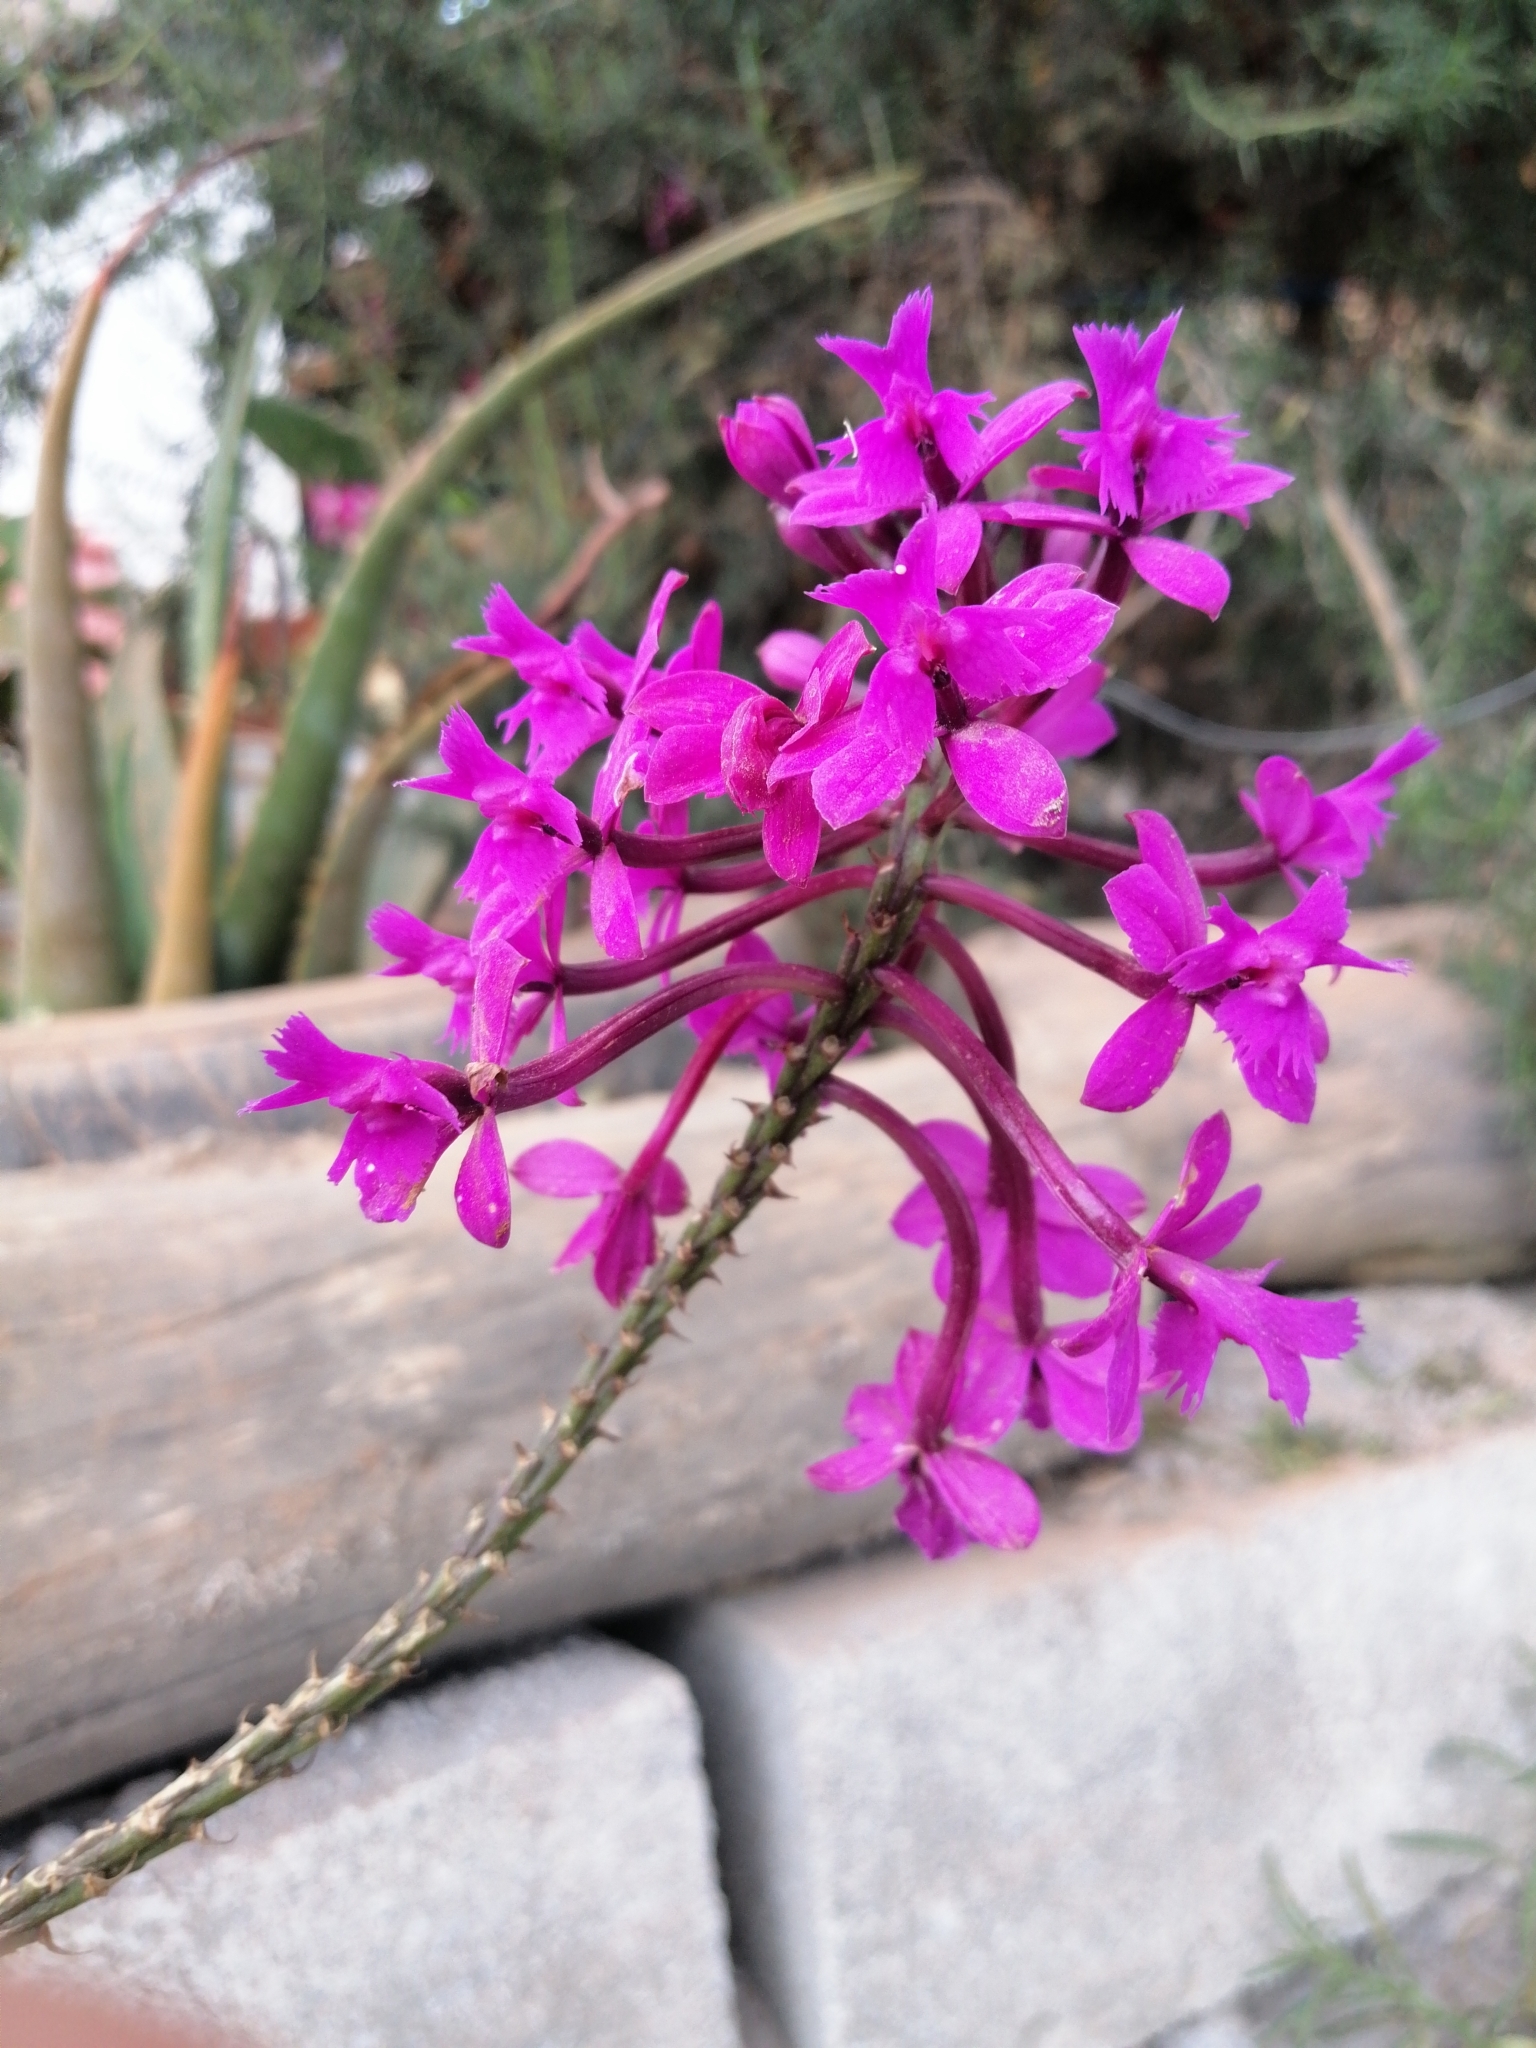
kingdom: Plantae
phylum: Tracheophyta
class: Liliopsida
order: Asparagales
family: Orchidaceae
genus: Epidendrum
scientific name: Epidendrum jamiesonis
